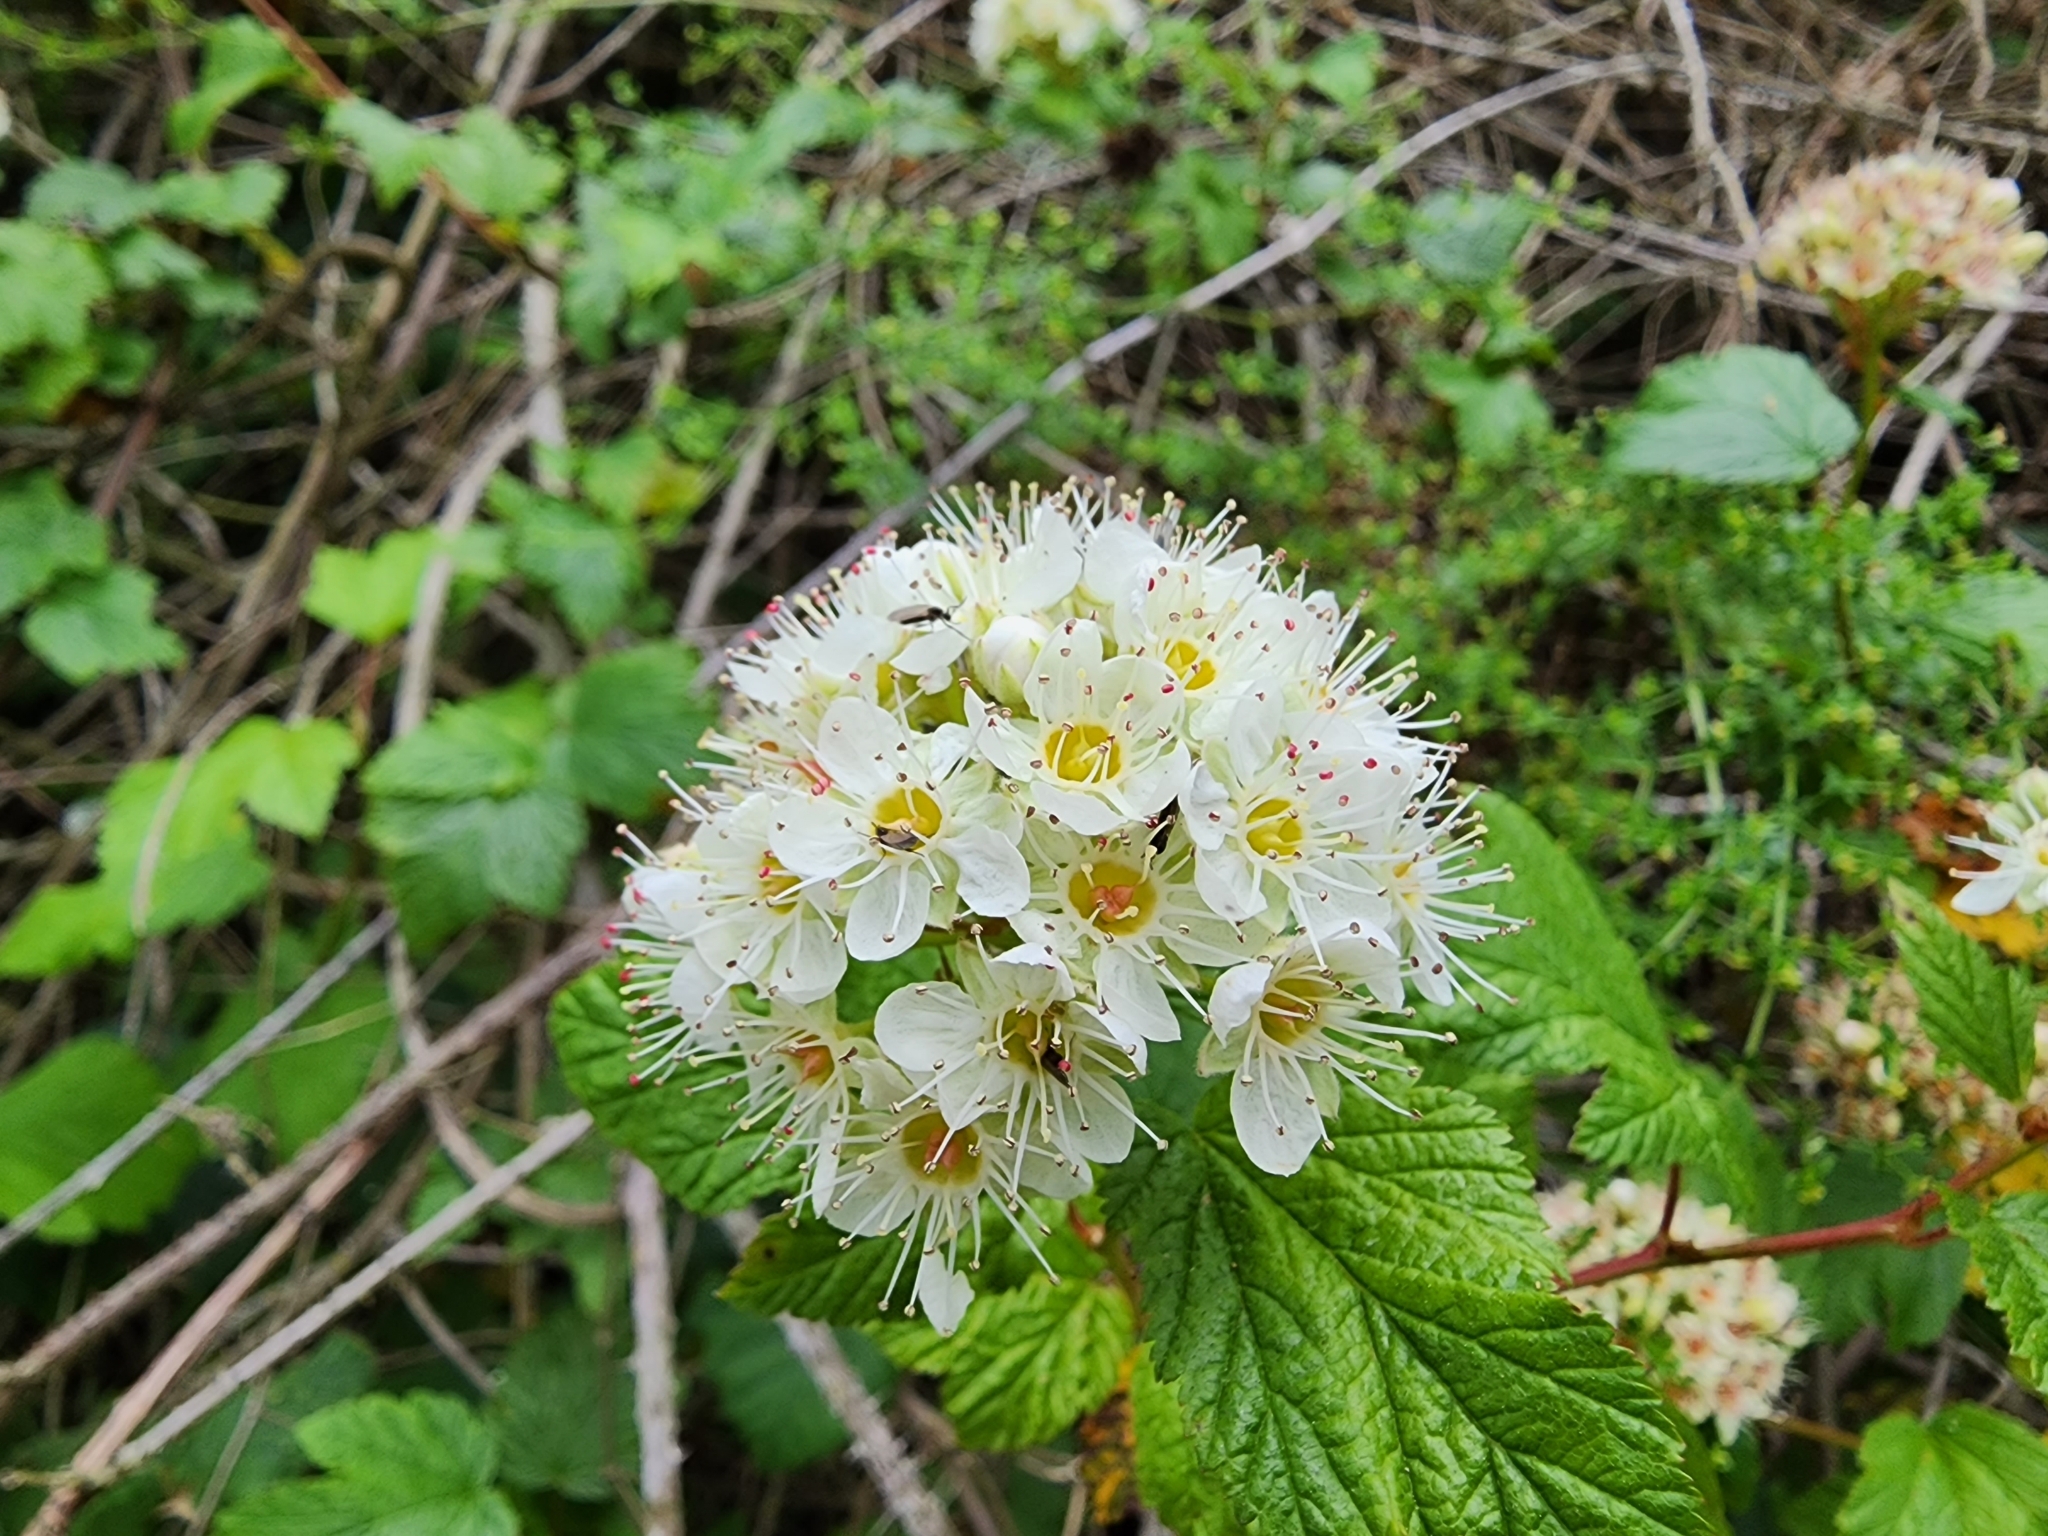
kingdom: Plantae
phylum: Tracheophyta
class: Magnoliopsida
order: Rosales
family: Rosaceae
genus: Physocarpus
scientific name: Physocarpus capitatus
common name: Pacific ninebark
